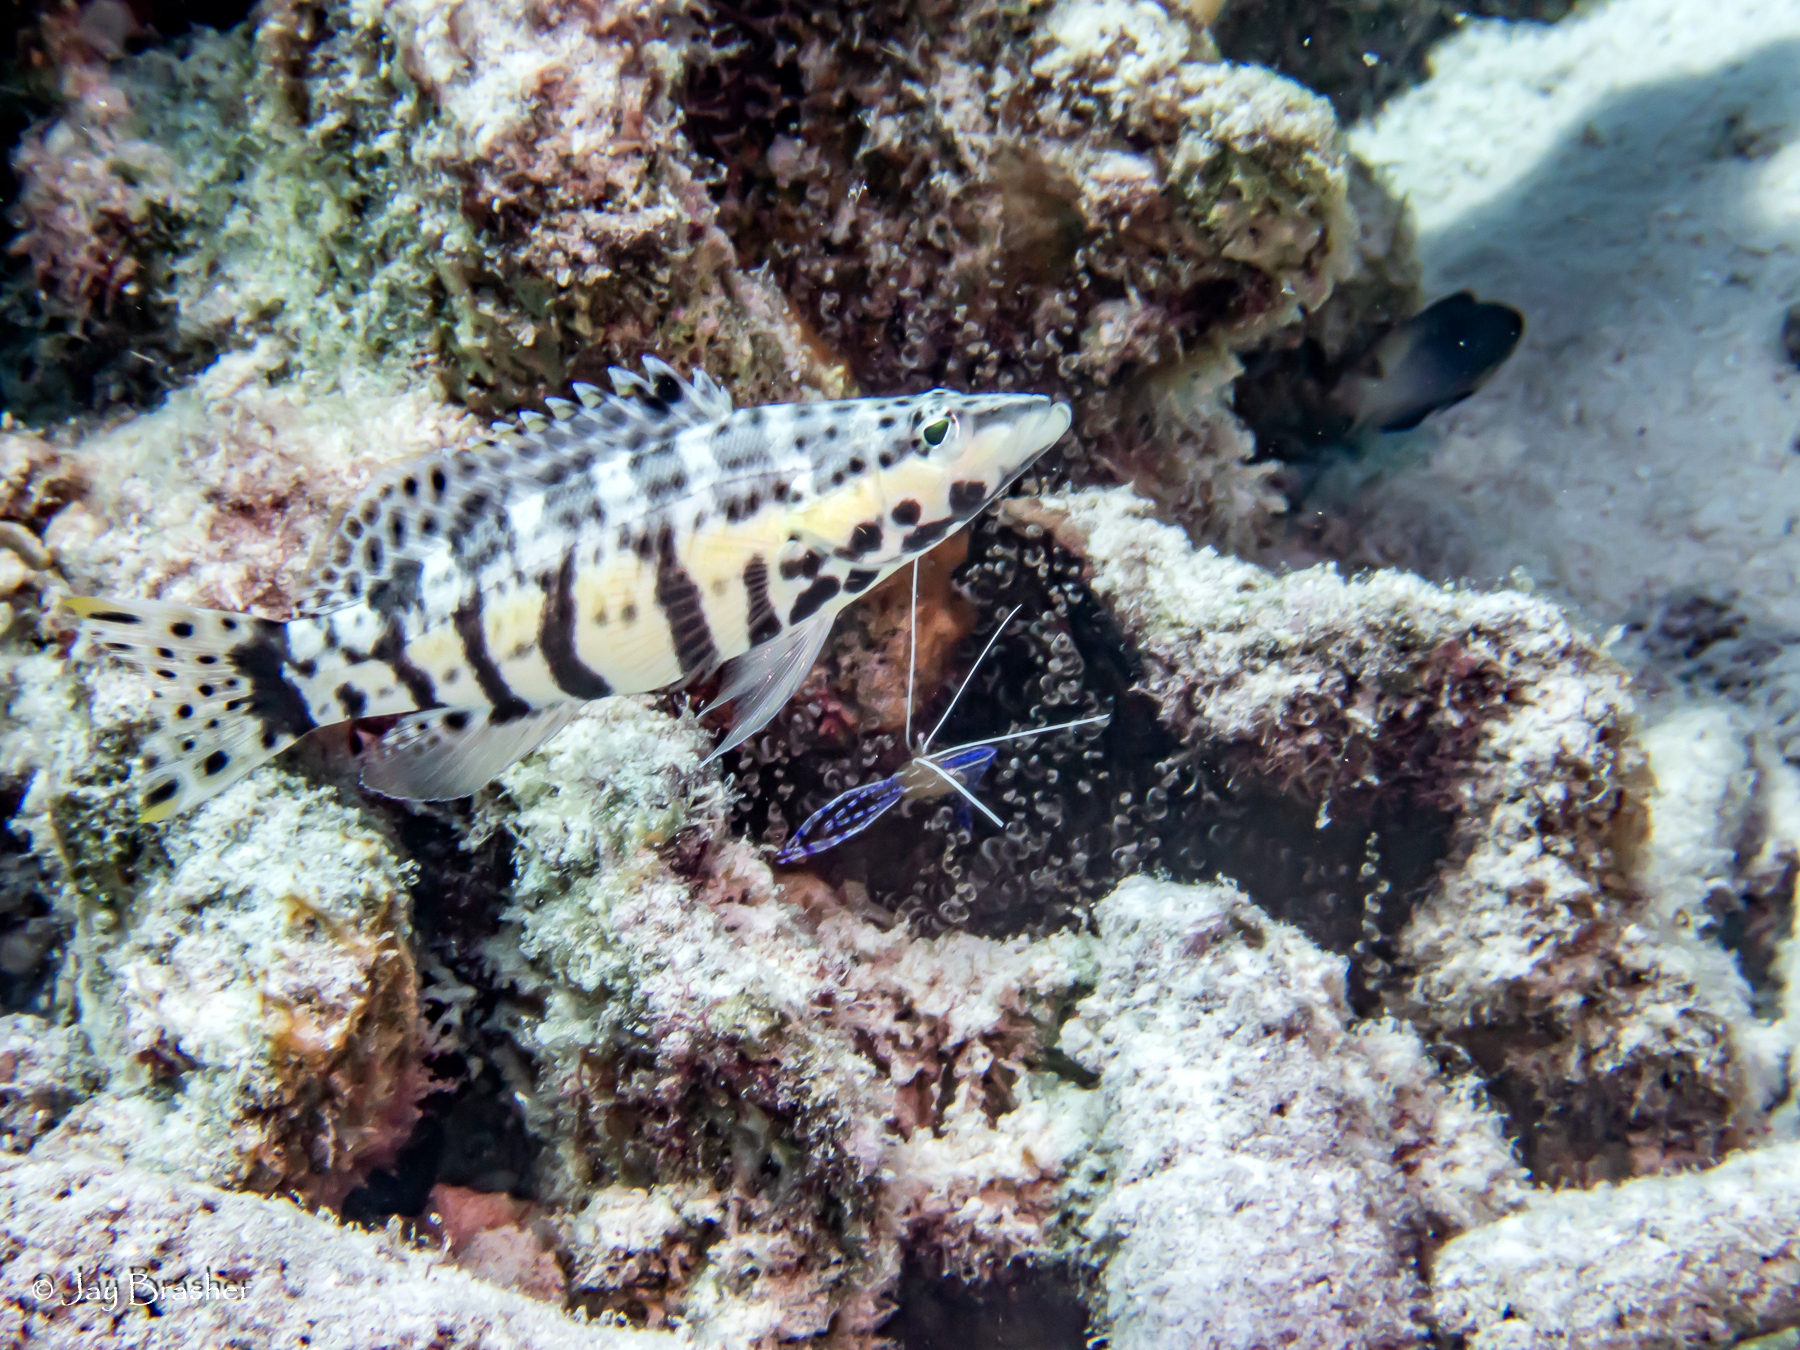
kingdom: Animalia
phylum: Chordata
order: Perciformes
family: Serranidae
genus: Serranus
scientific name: Serranus tigrinus
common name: Harlequin bass
